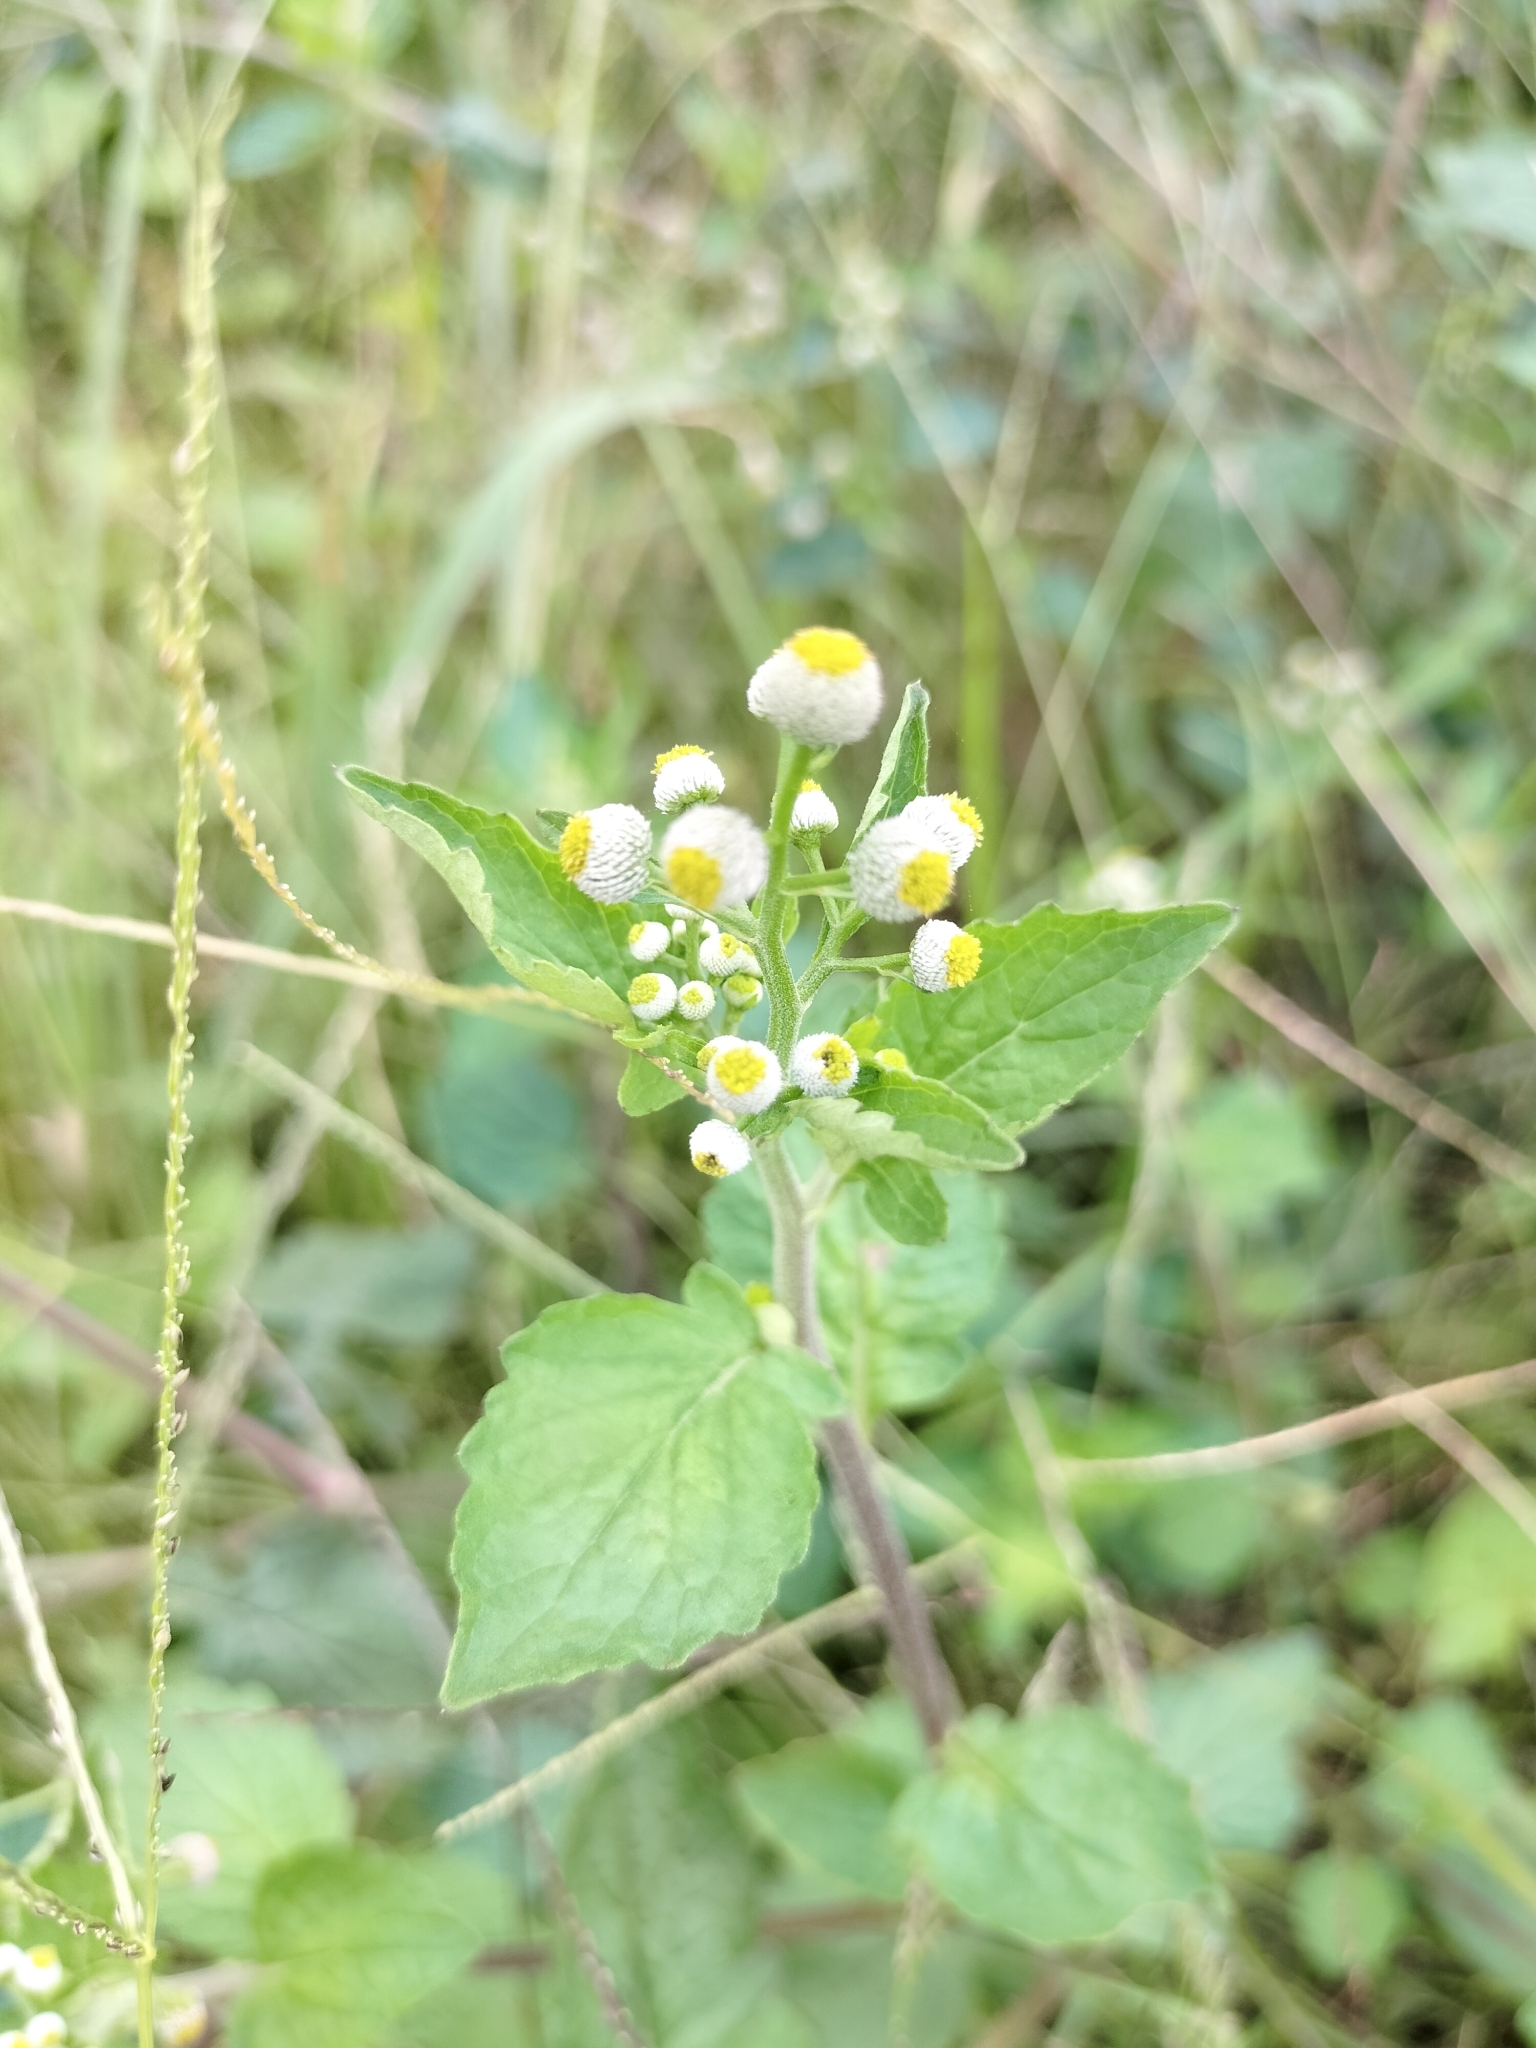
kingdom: Plantae
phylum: Tracheophyta
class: Magnoliopsida
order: Asterales
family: Asteraceae
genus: Dichrocephala
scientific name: Dichrocephala integrifolia
